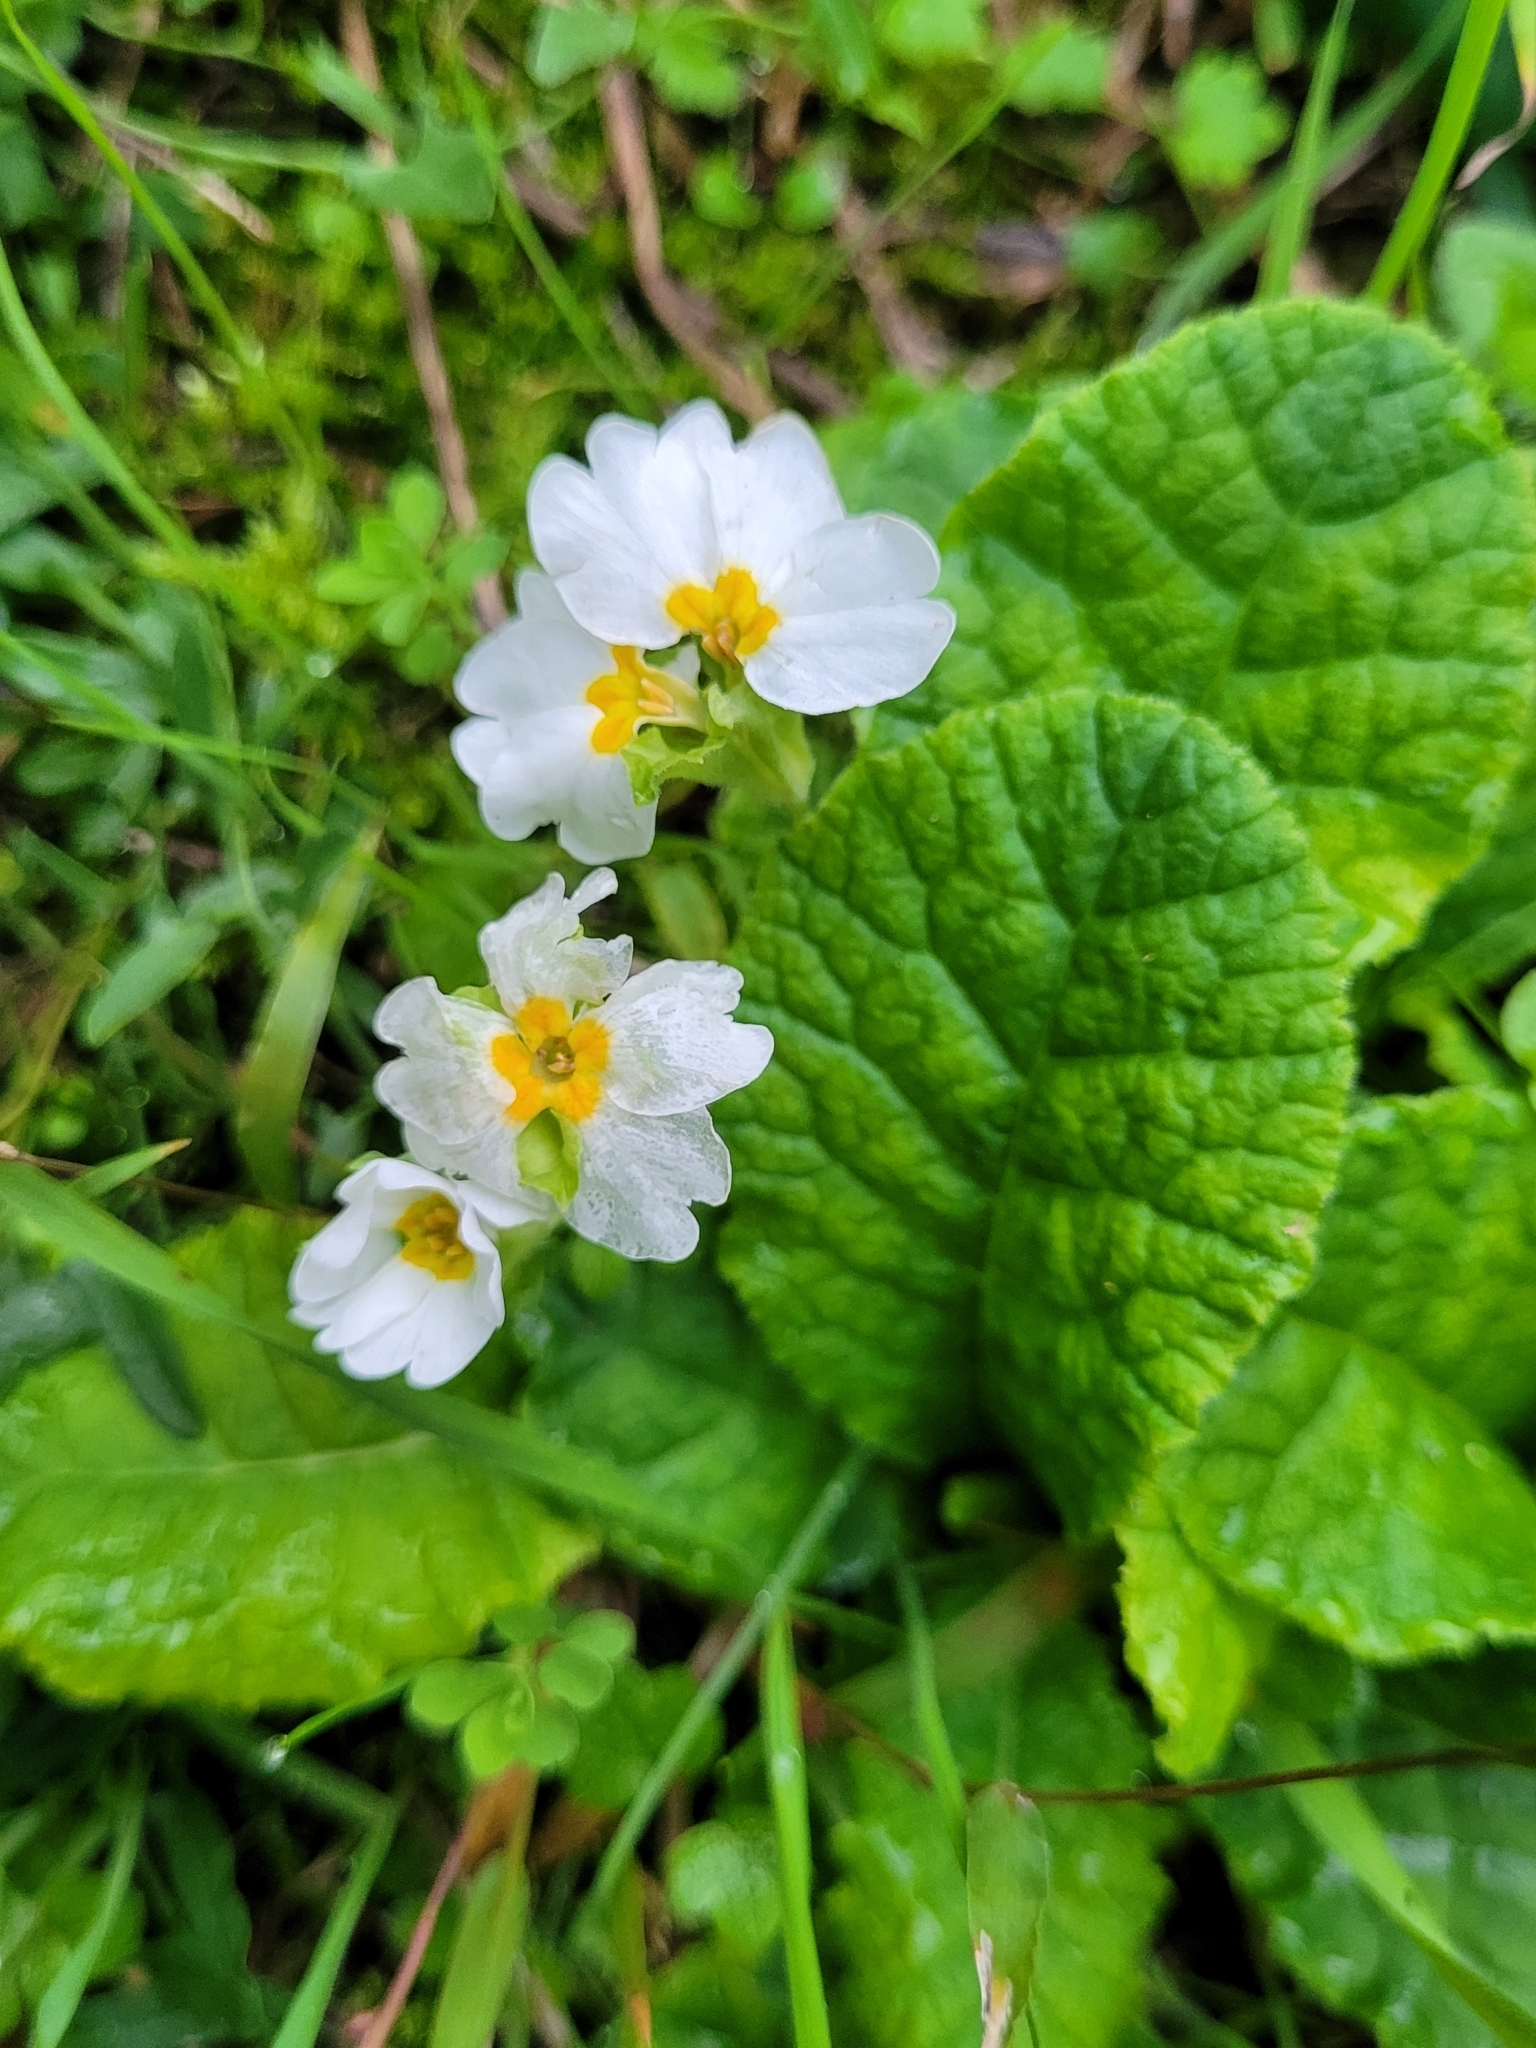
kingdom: Plantae
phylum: Tracheophyta
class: Magnoliopsida
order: Ericales
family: Primulaceae
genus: Primula
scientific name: Primula vulgaris
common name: Primrose
